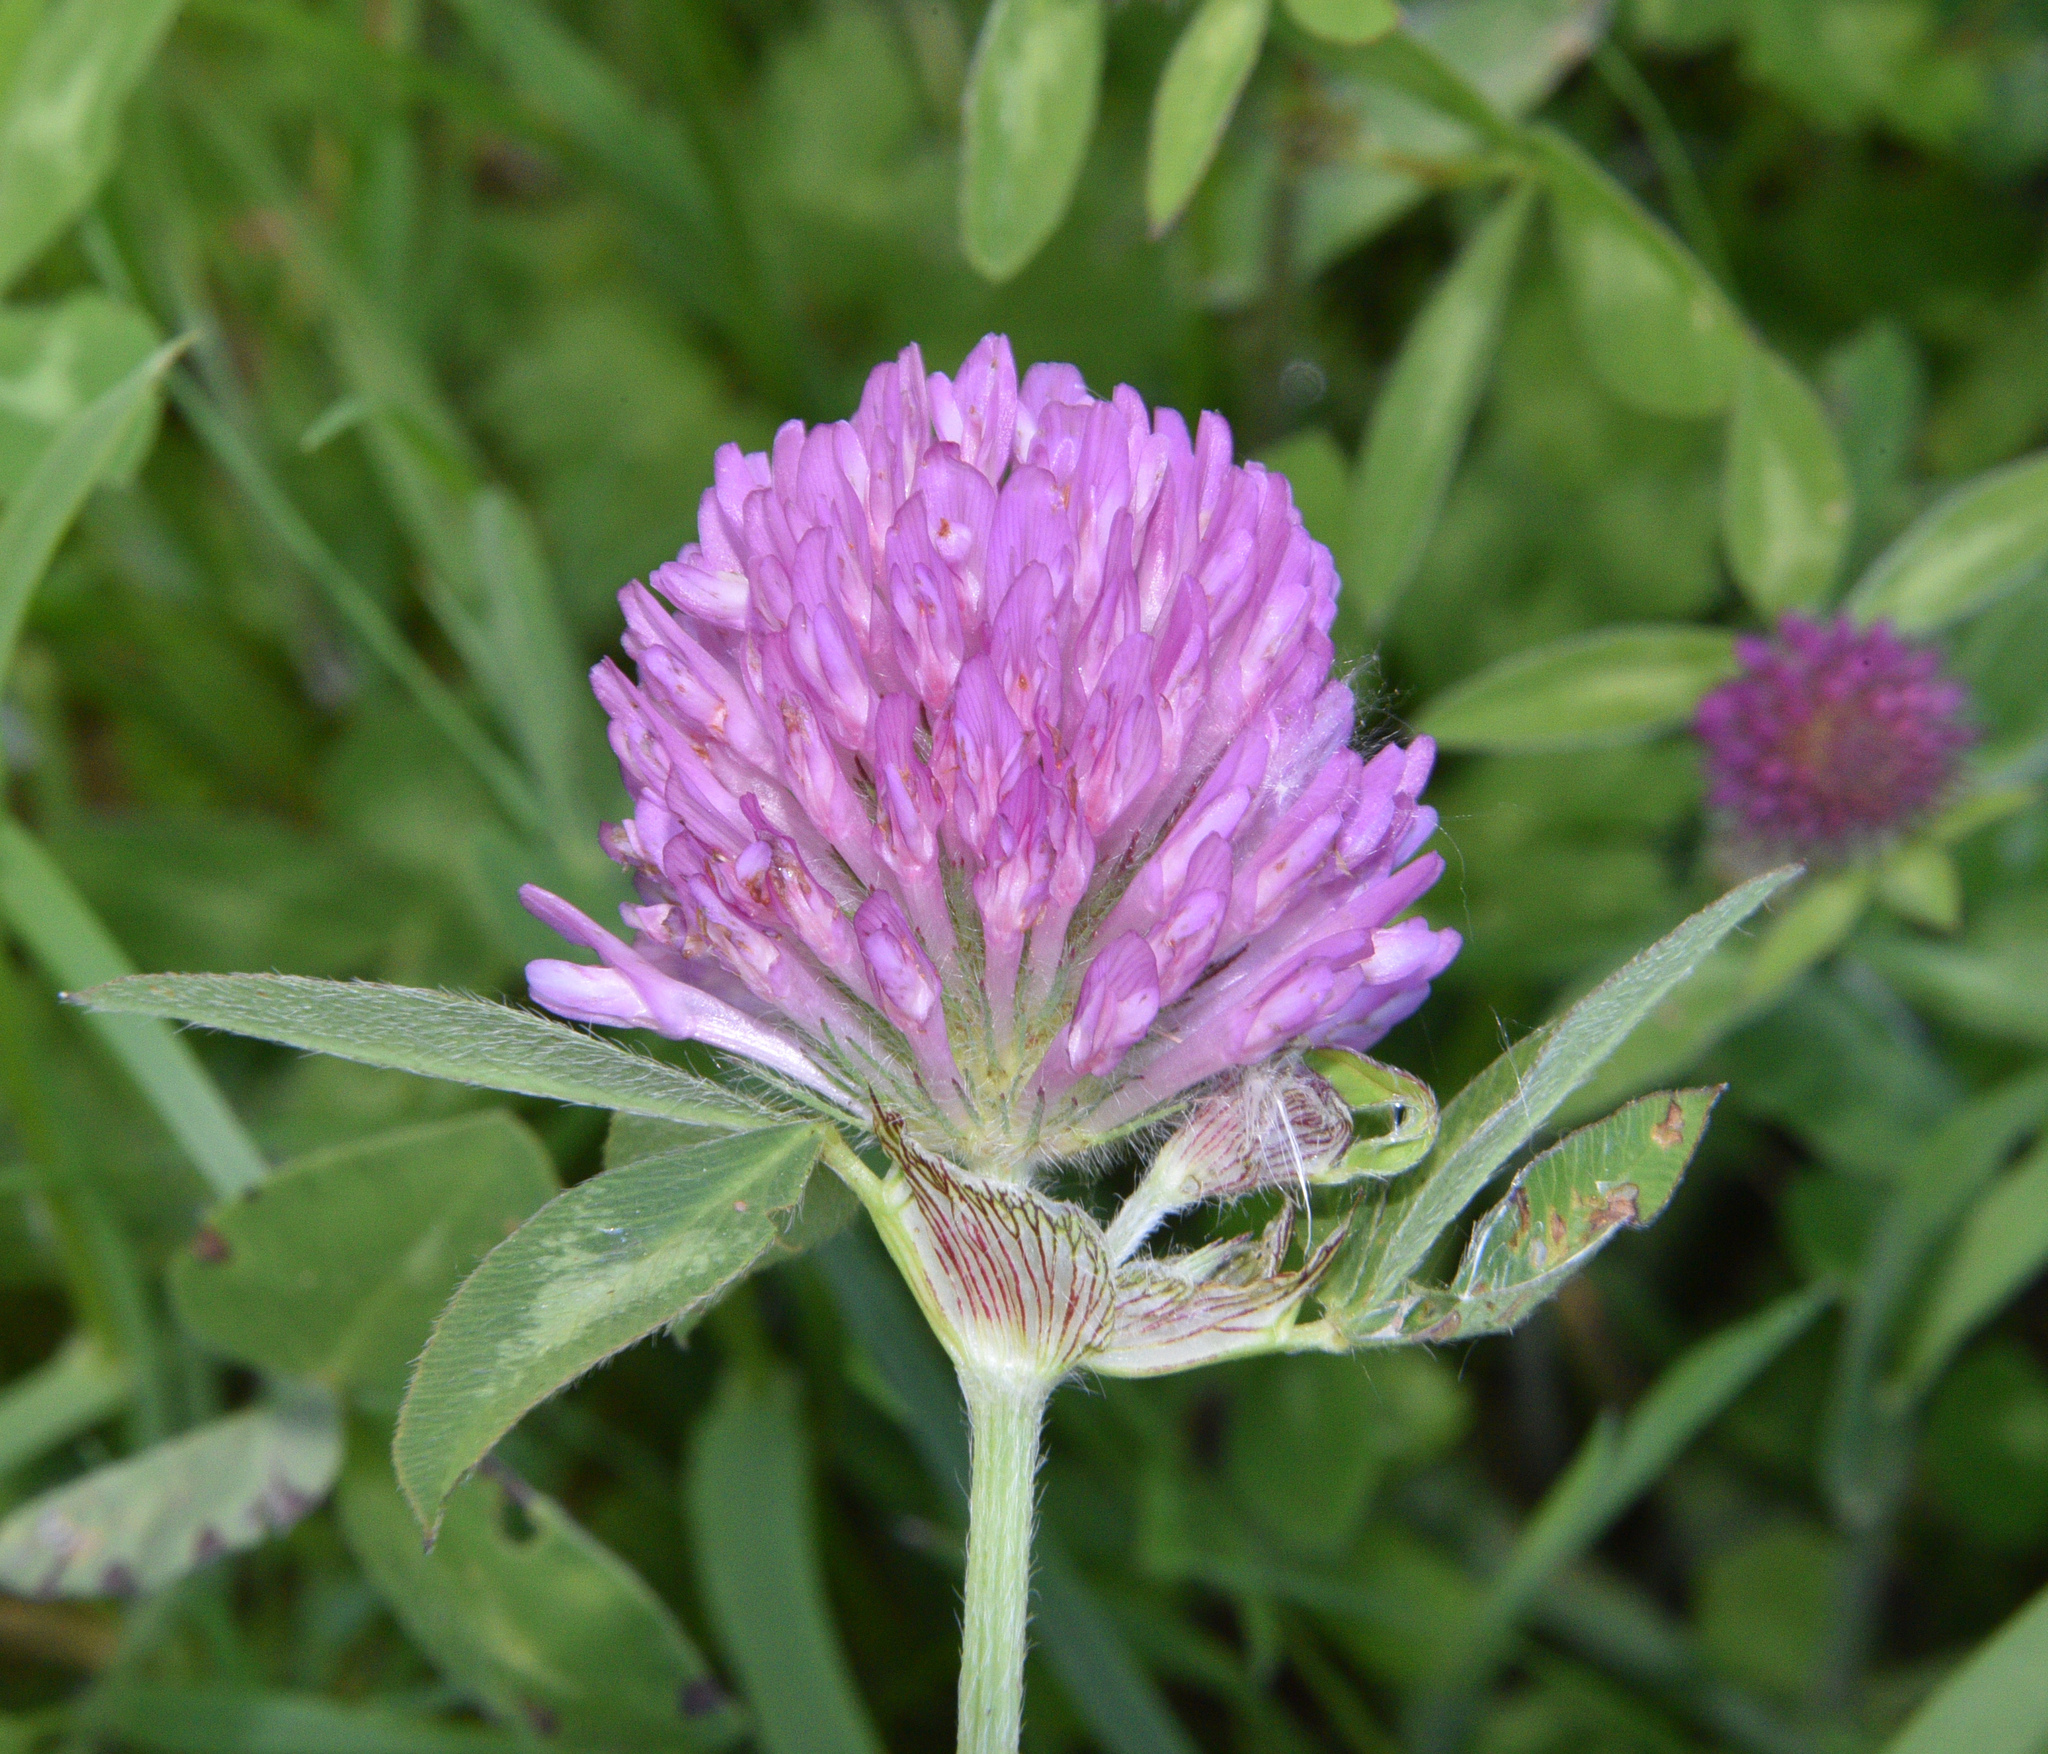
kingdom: Plantae
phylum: Tracheophyta
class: Magnoliopsida
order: Fabales
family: Fabaceae
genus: Trifolium
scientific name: Trifolium pratense
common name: Red clover
